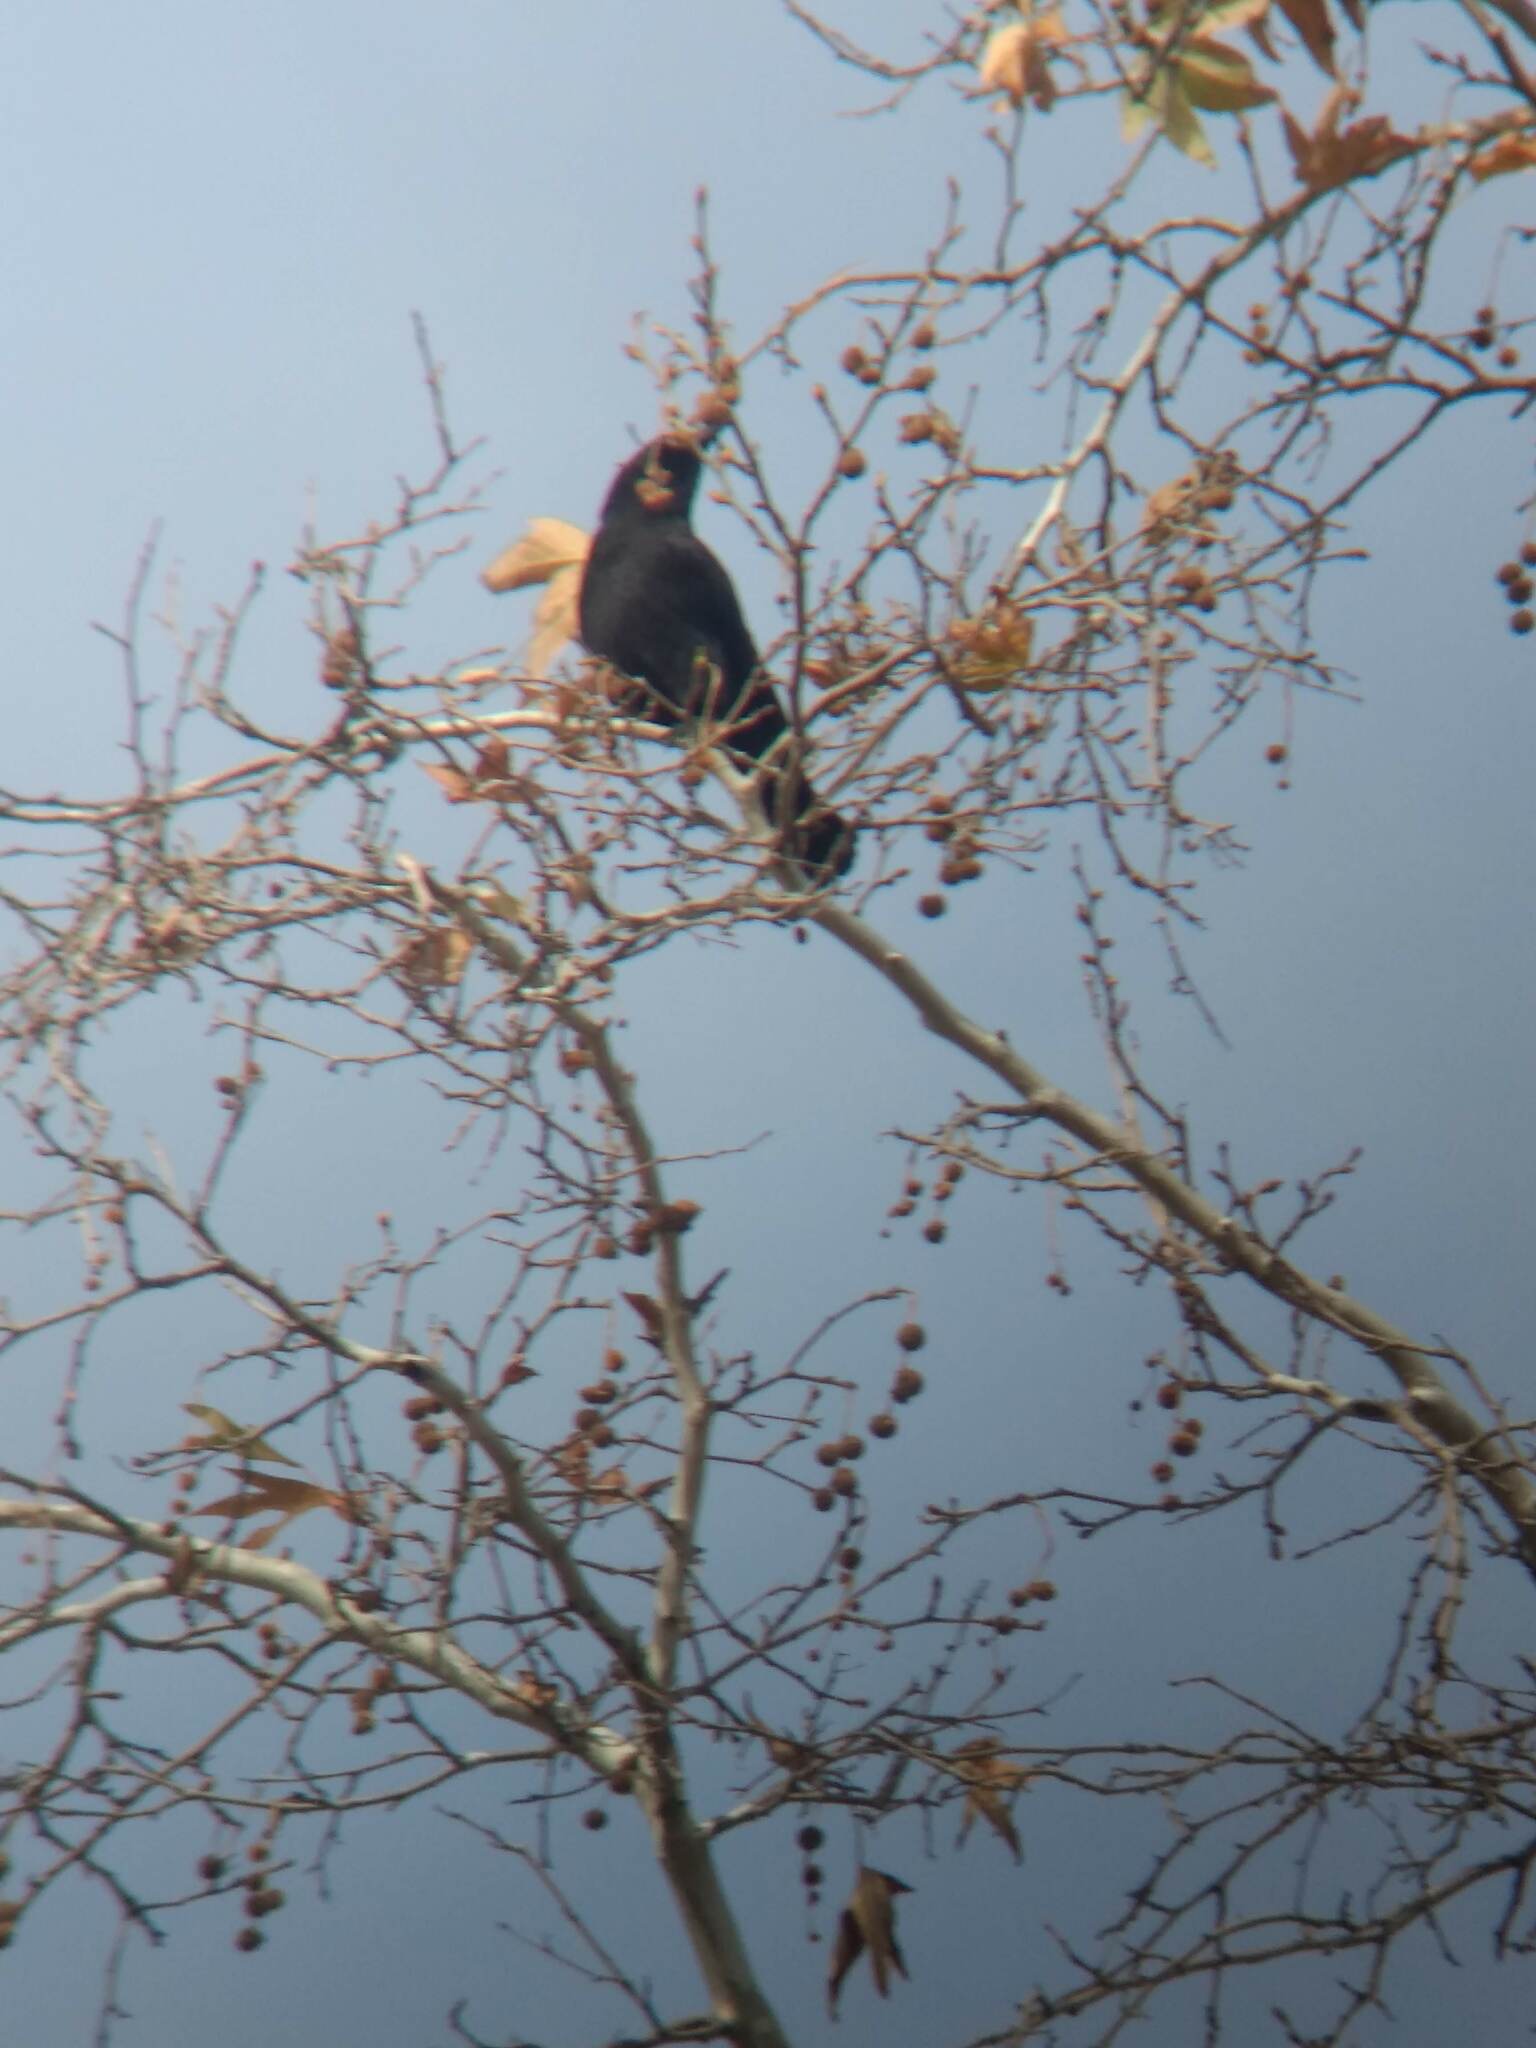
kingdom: Animalia
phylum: Chordata
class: Aves
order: Passeriformes
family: Corvidae
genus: Corvus
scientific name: Corvus brachyrhynchos
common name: American crow
